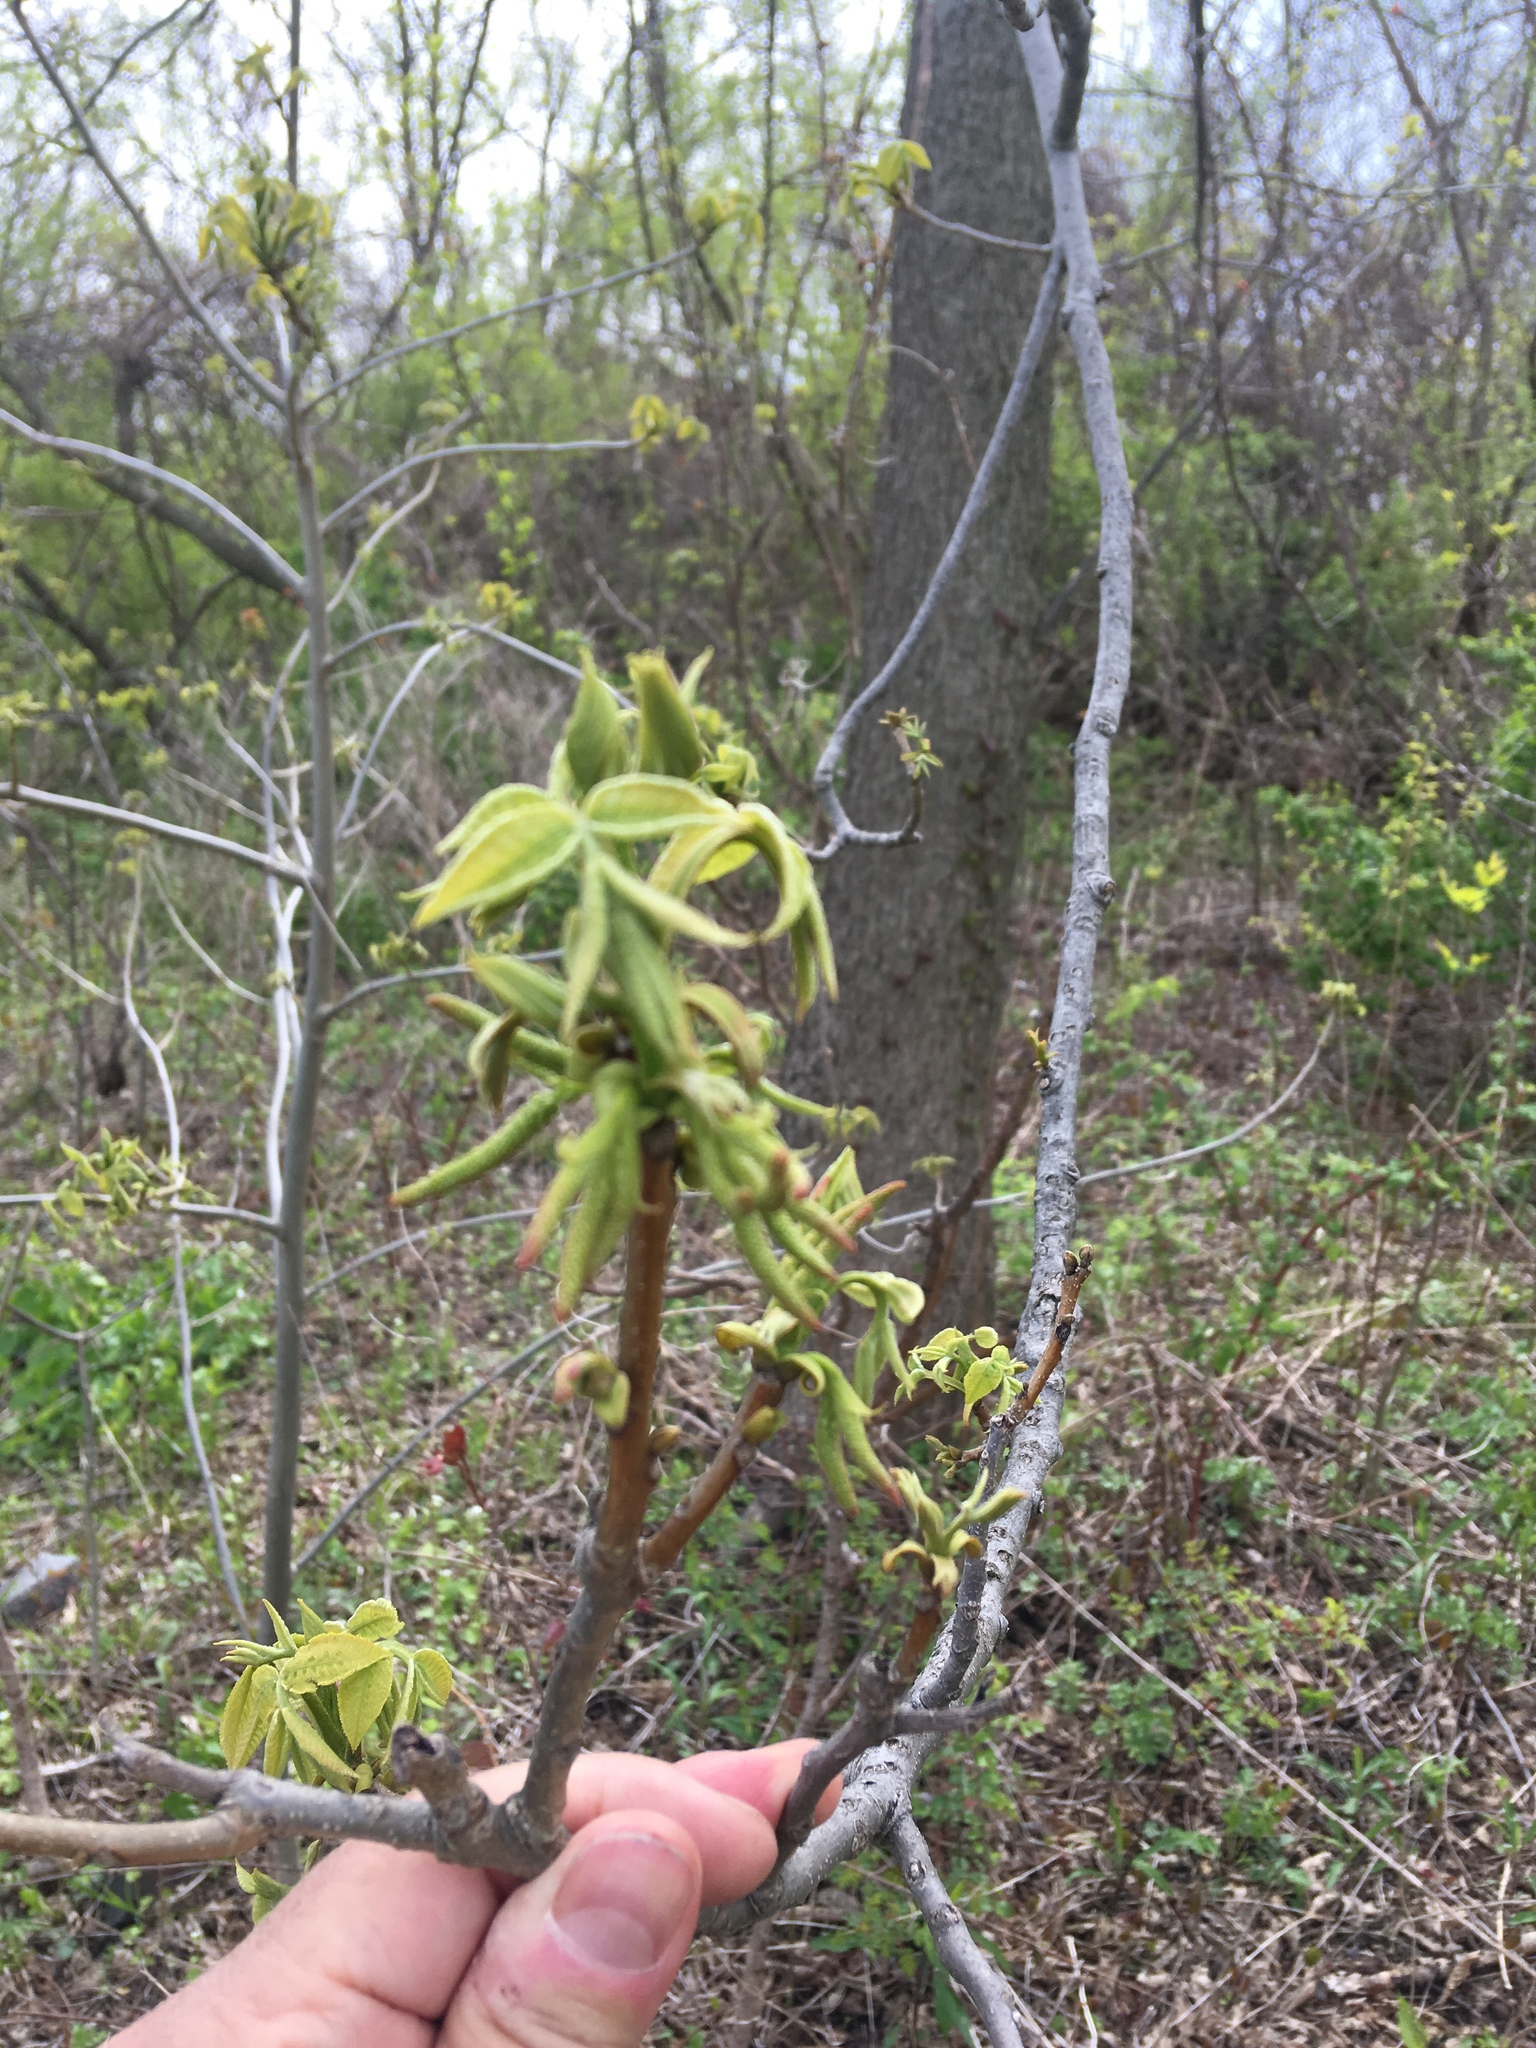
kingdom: Plantae
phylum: Tracheophyta
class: Magnoliopsida
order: Fagales
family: Juglandaceae
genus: Carya
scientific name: Carya cordiformis
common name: Bitternut hickory
